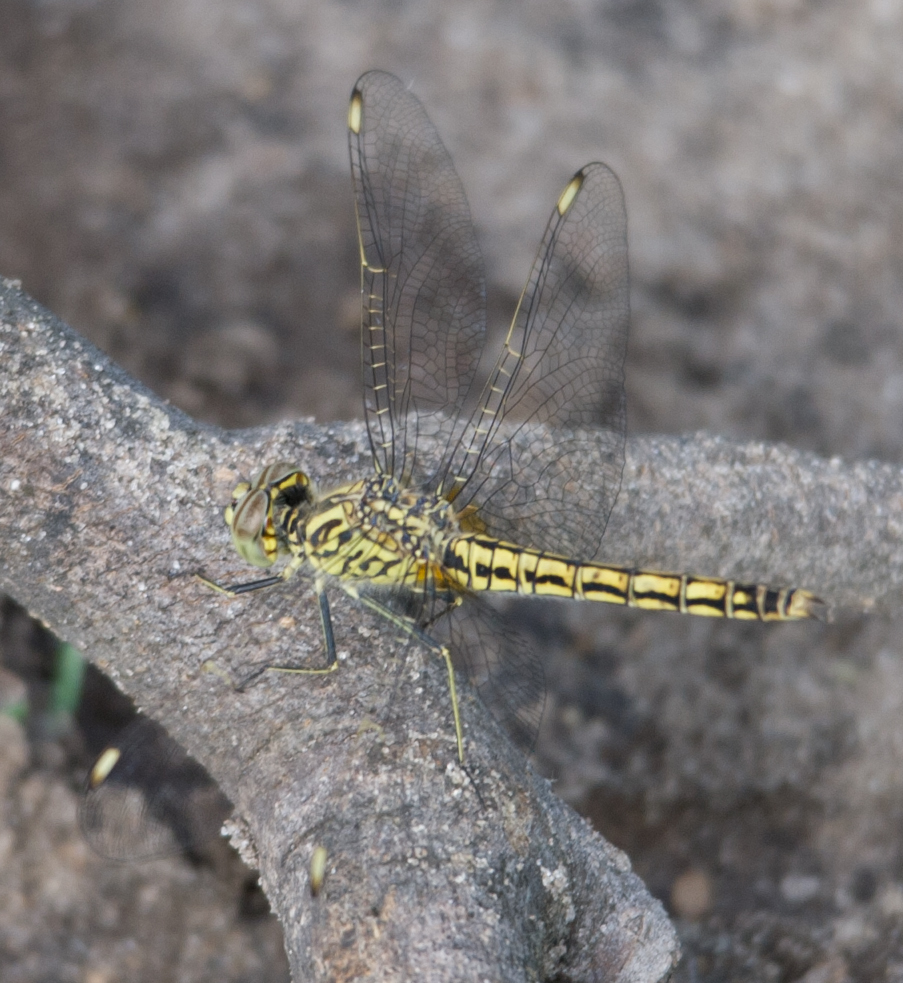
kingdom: Animalia
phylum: Arthropoda
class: Insecta
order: Odonata
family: Libellulidae
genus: Brachythemis
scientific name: Brachythemis leucosticta
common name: Banded groundling
